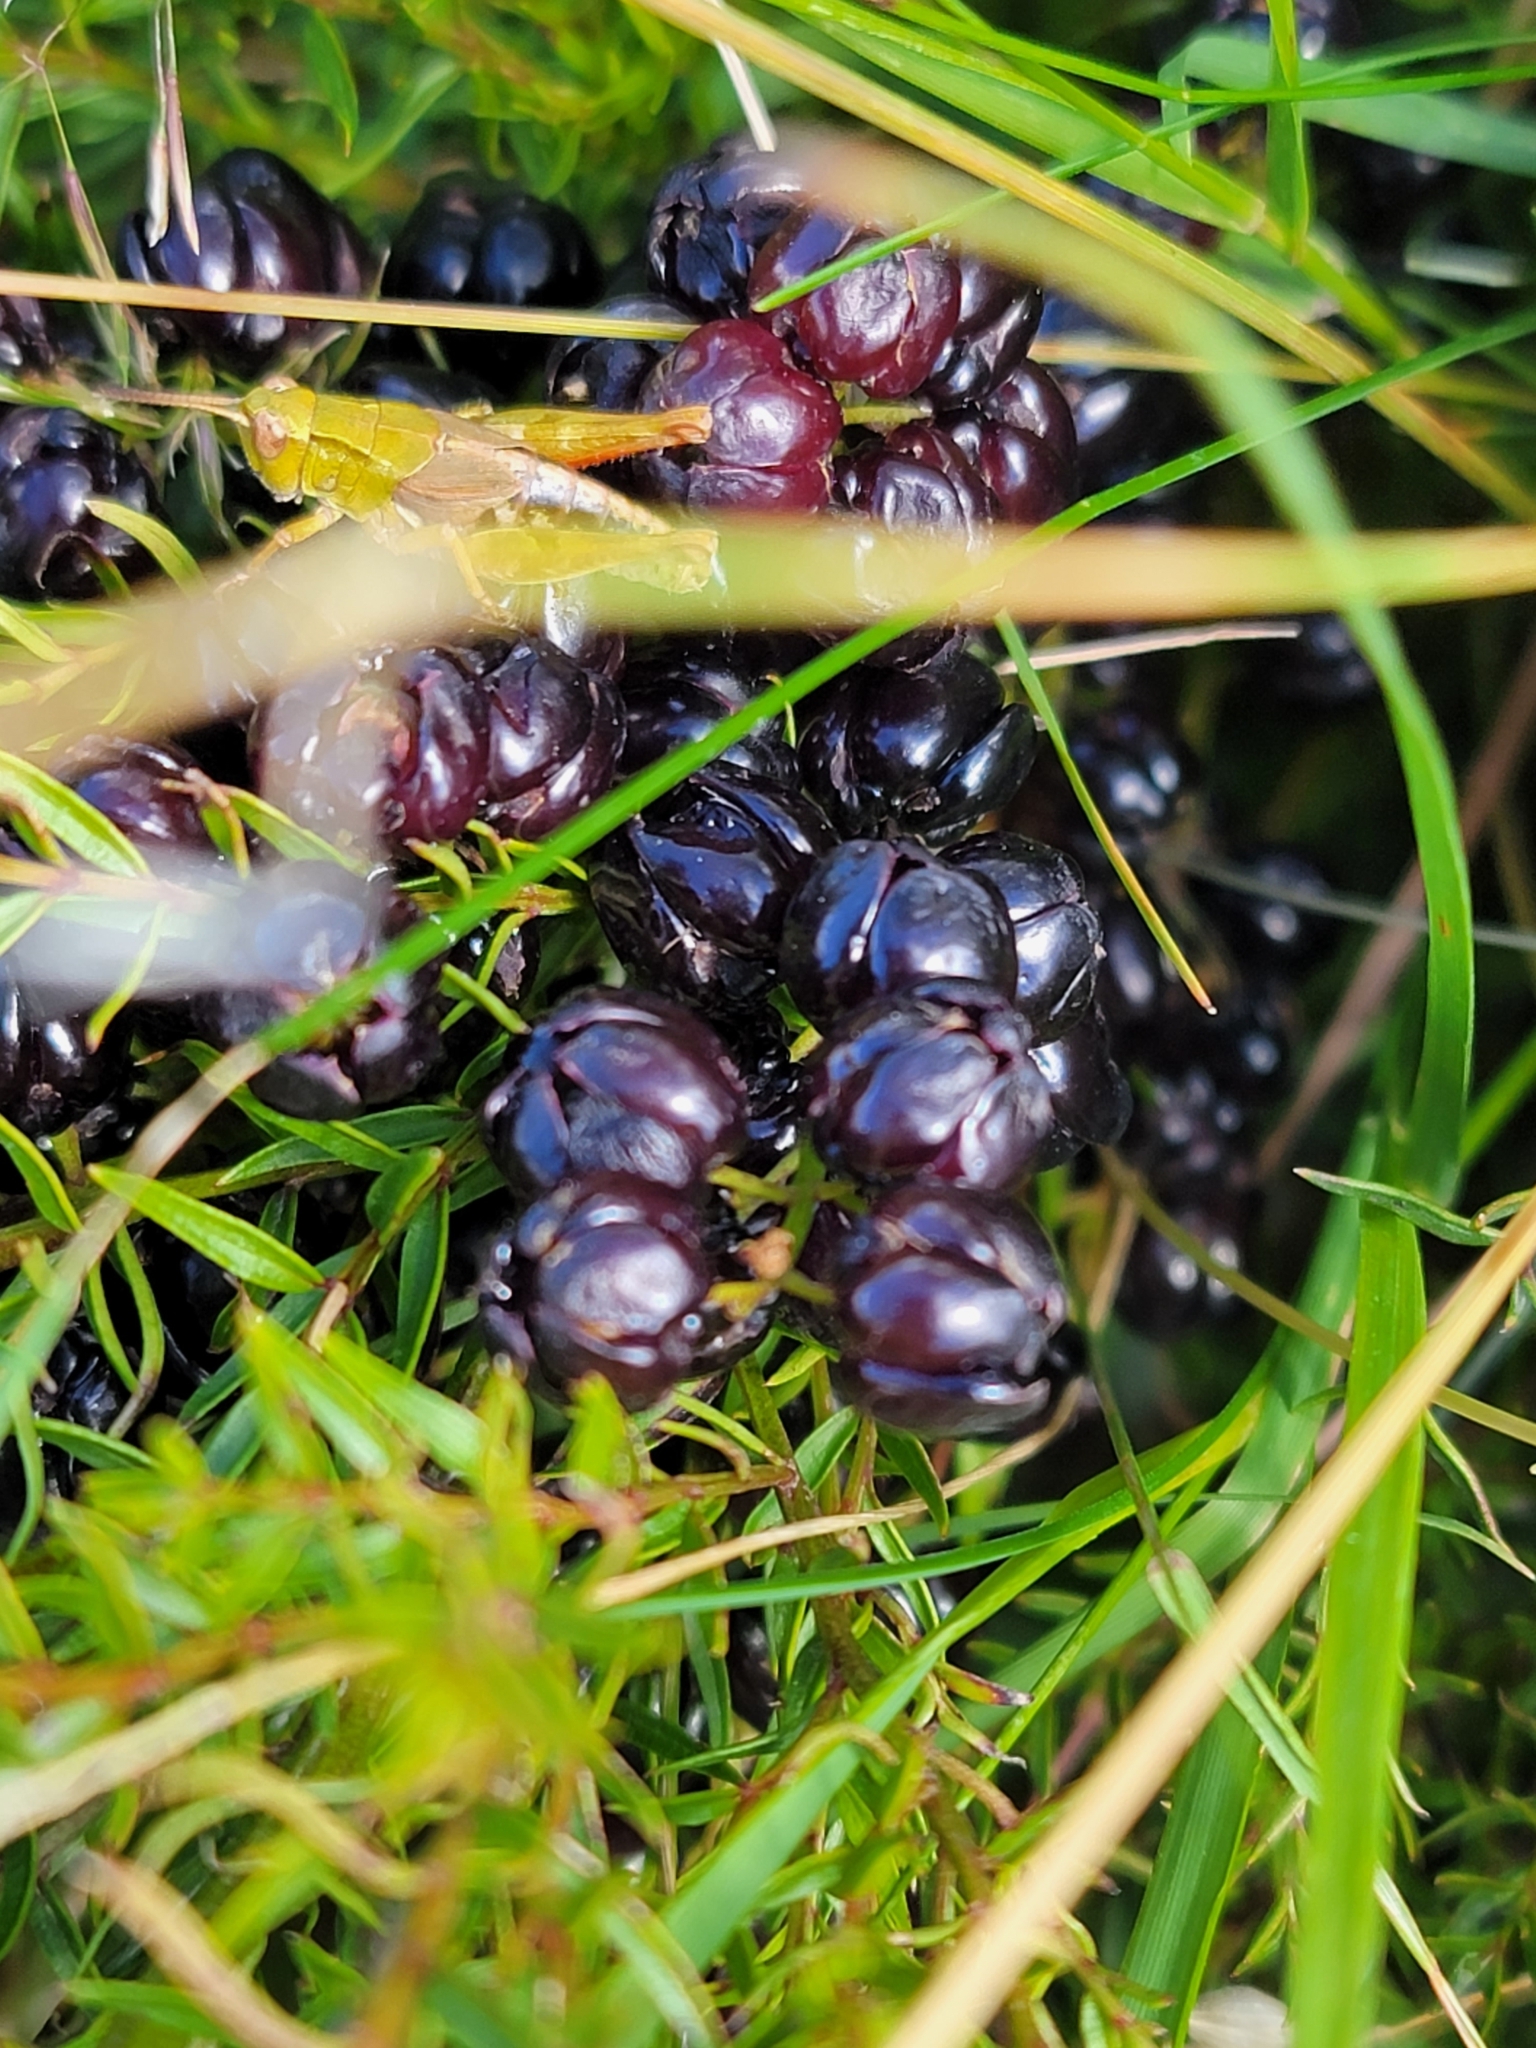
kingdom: Plantae
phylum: Tracheophyta
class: Magnoliopsida
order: Cucurbitales
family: Coriariaceae
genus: Coriaria
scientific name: Coriaria plumosa
